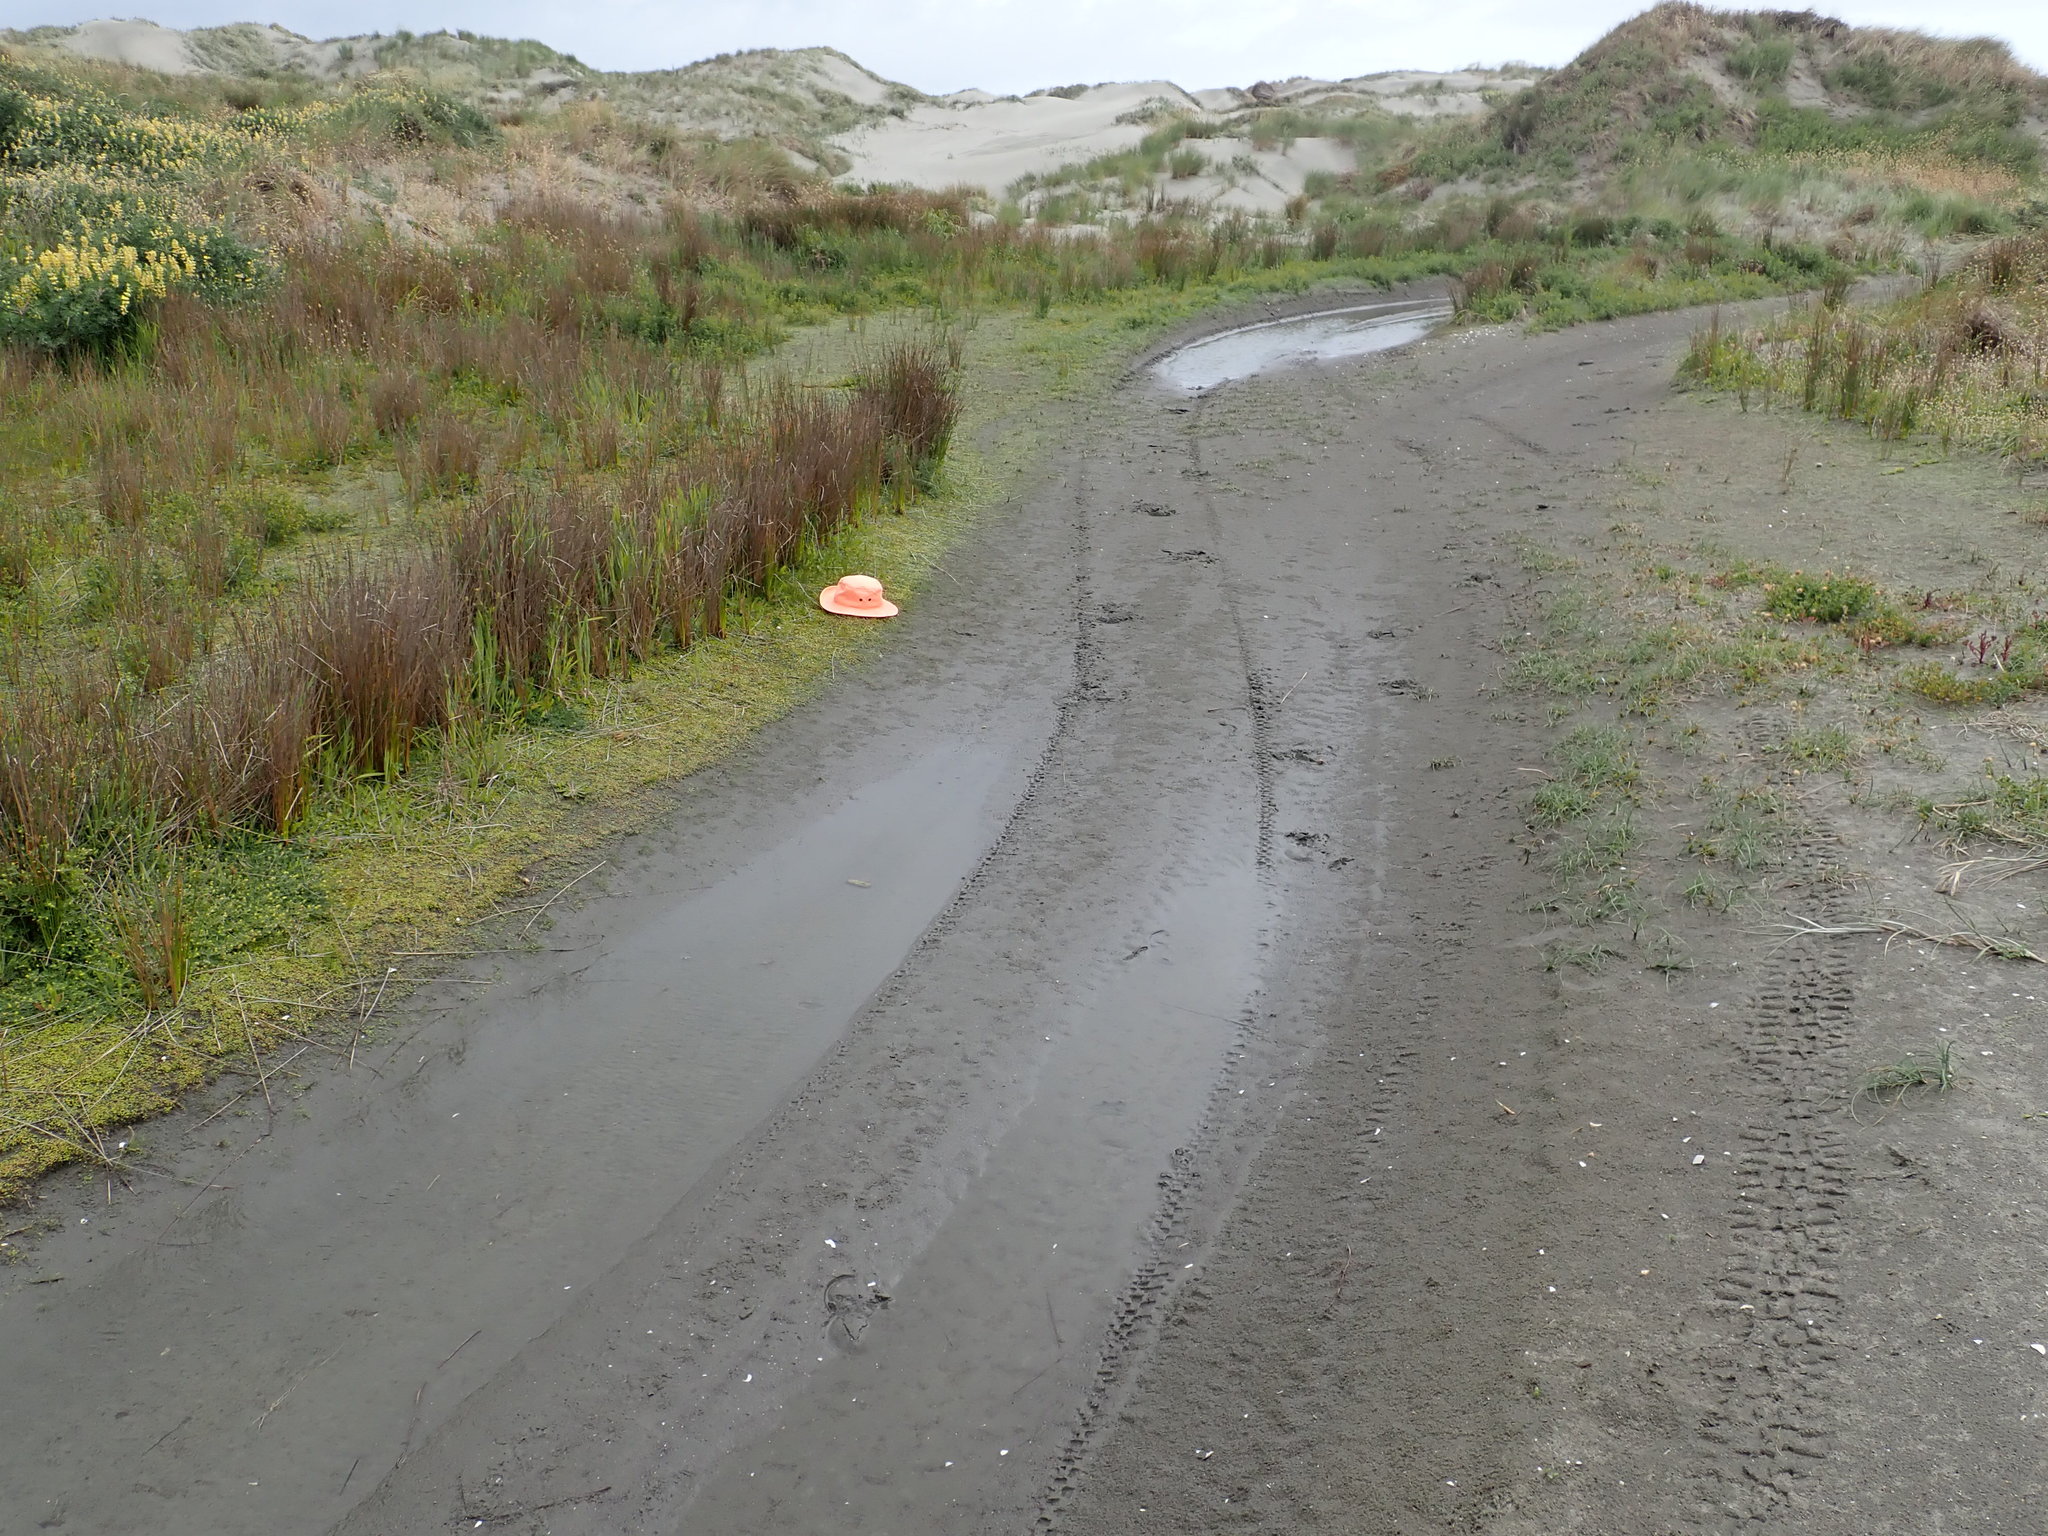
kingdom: Plantae
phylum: Tracheophyta
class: Liliopsida
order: Alismatales
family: Juncaginaceae
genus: Triglochin
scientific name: Triglochin striata
